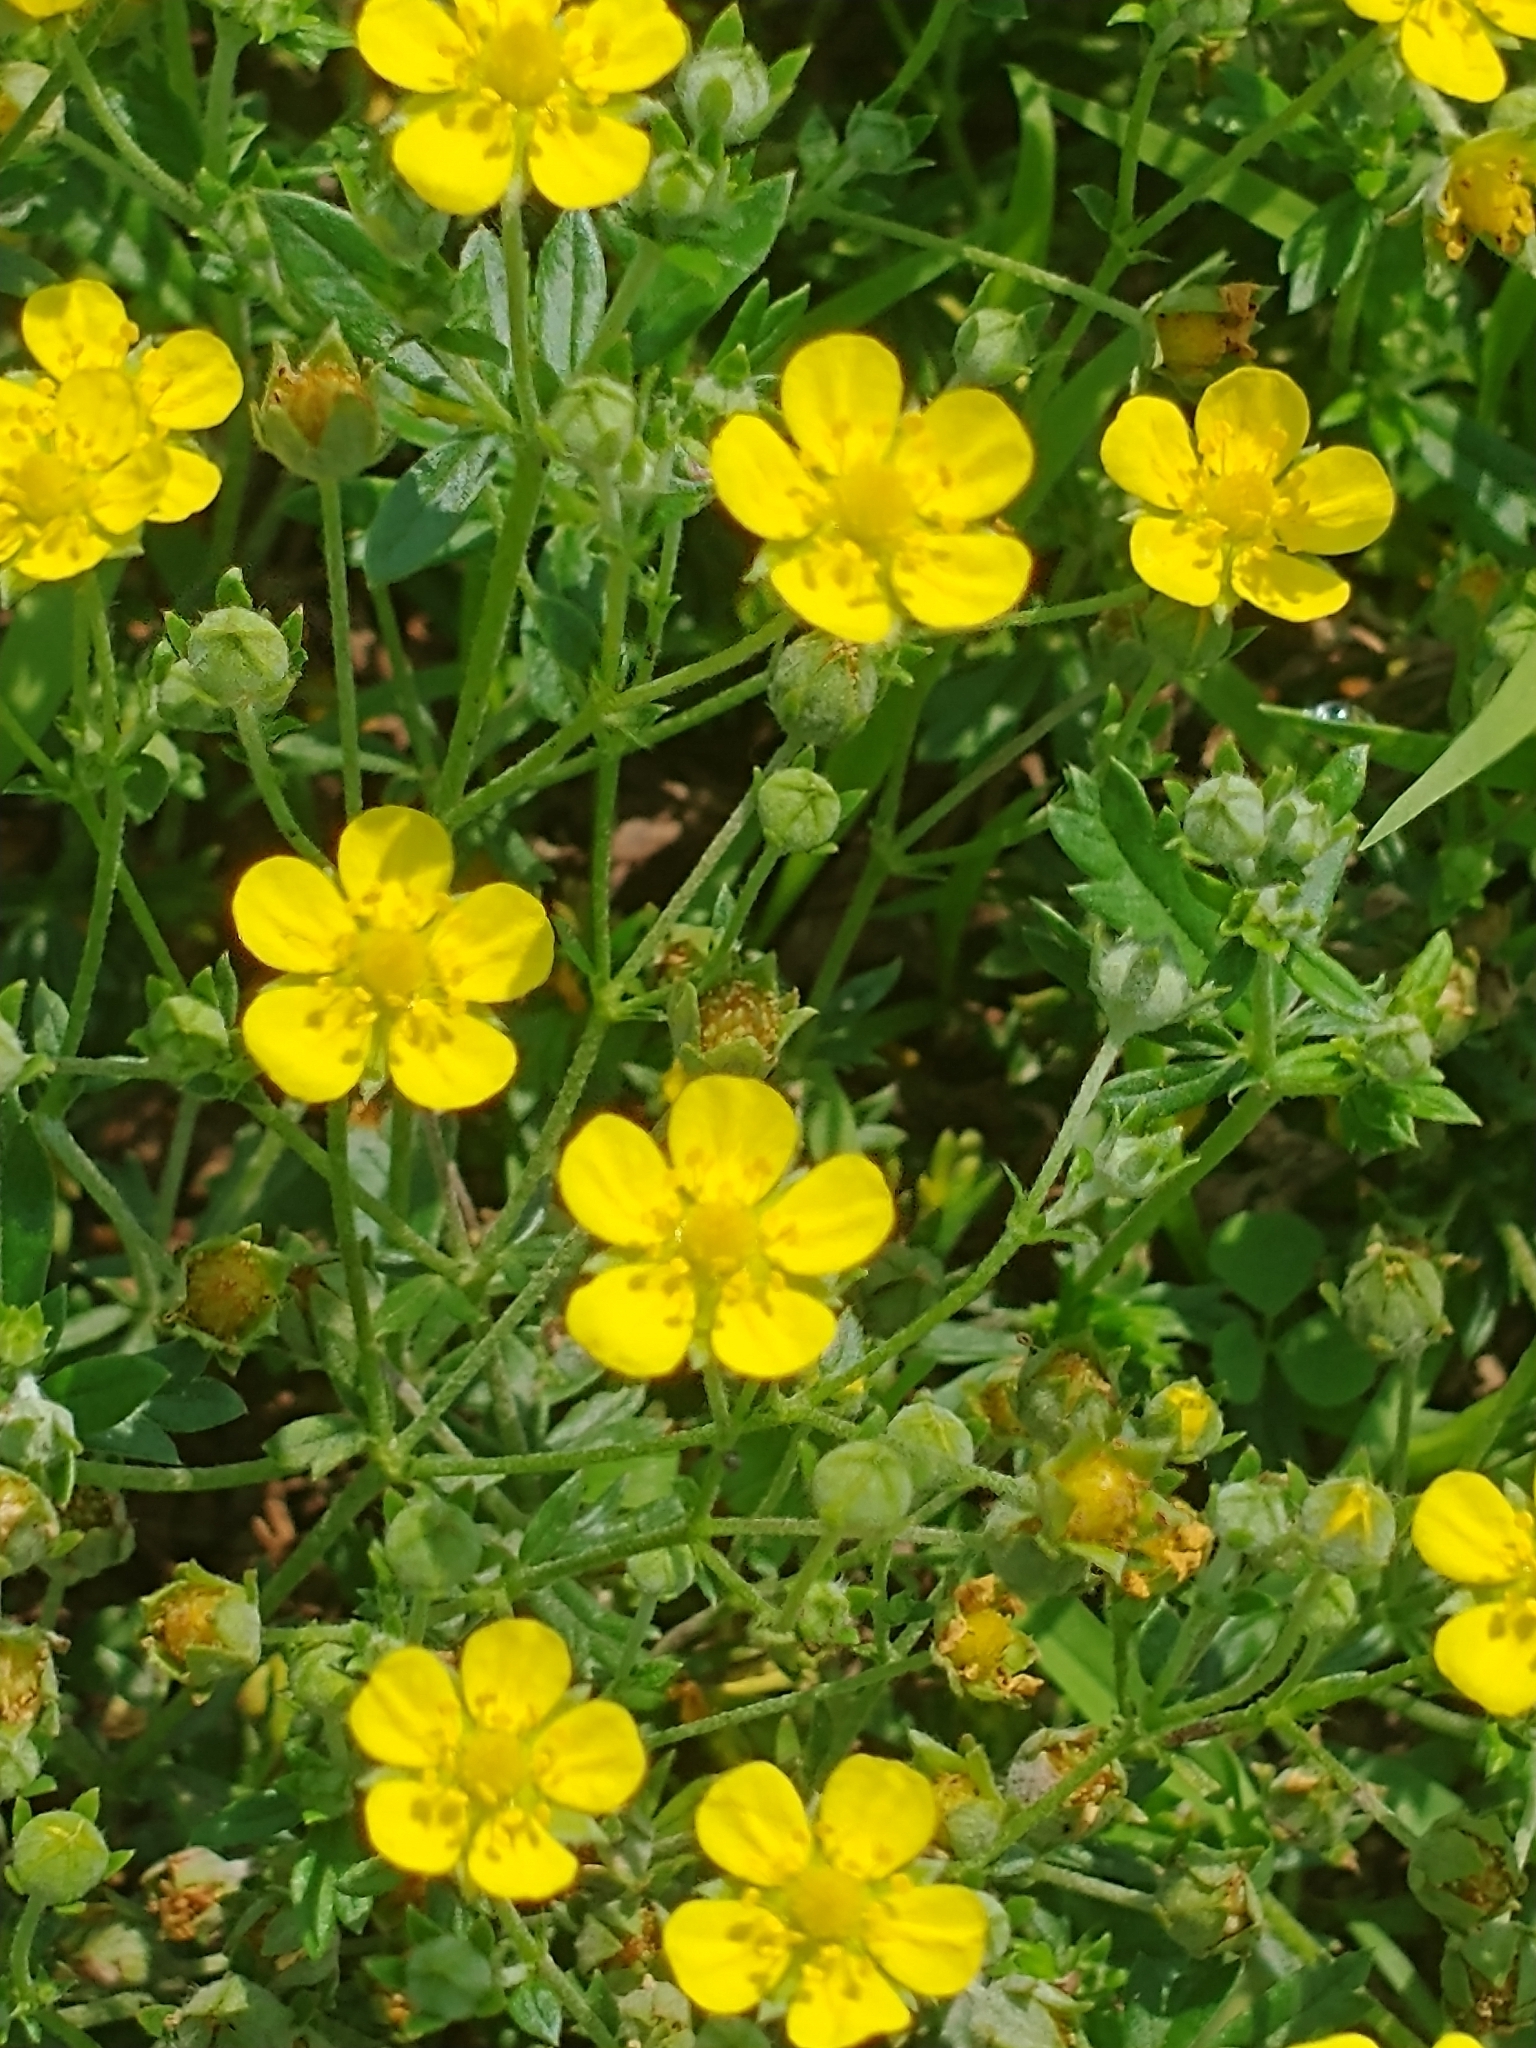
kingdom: Plantae
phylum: Tracheophyta
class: Magnoliopsida
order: Rosales
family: Rosaceae
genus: Potentilla
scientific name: Potentilla argentea
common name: Hoary cinquefoil
